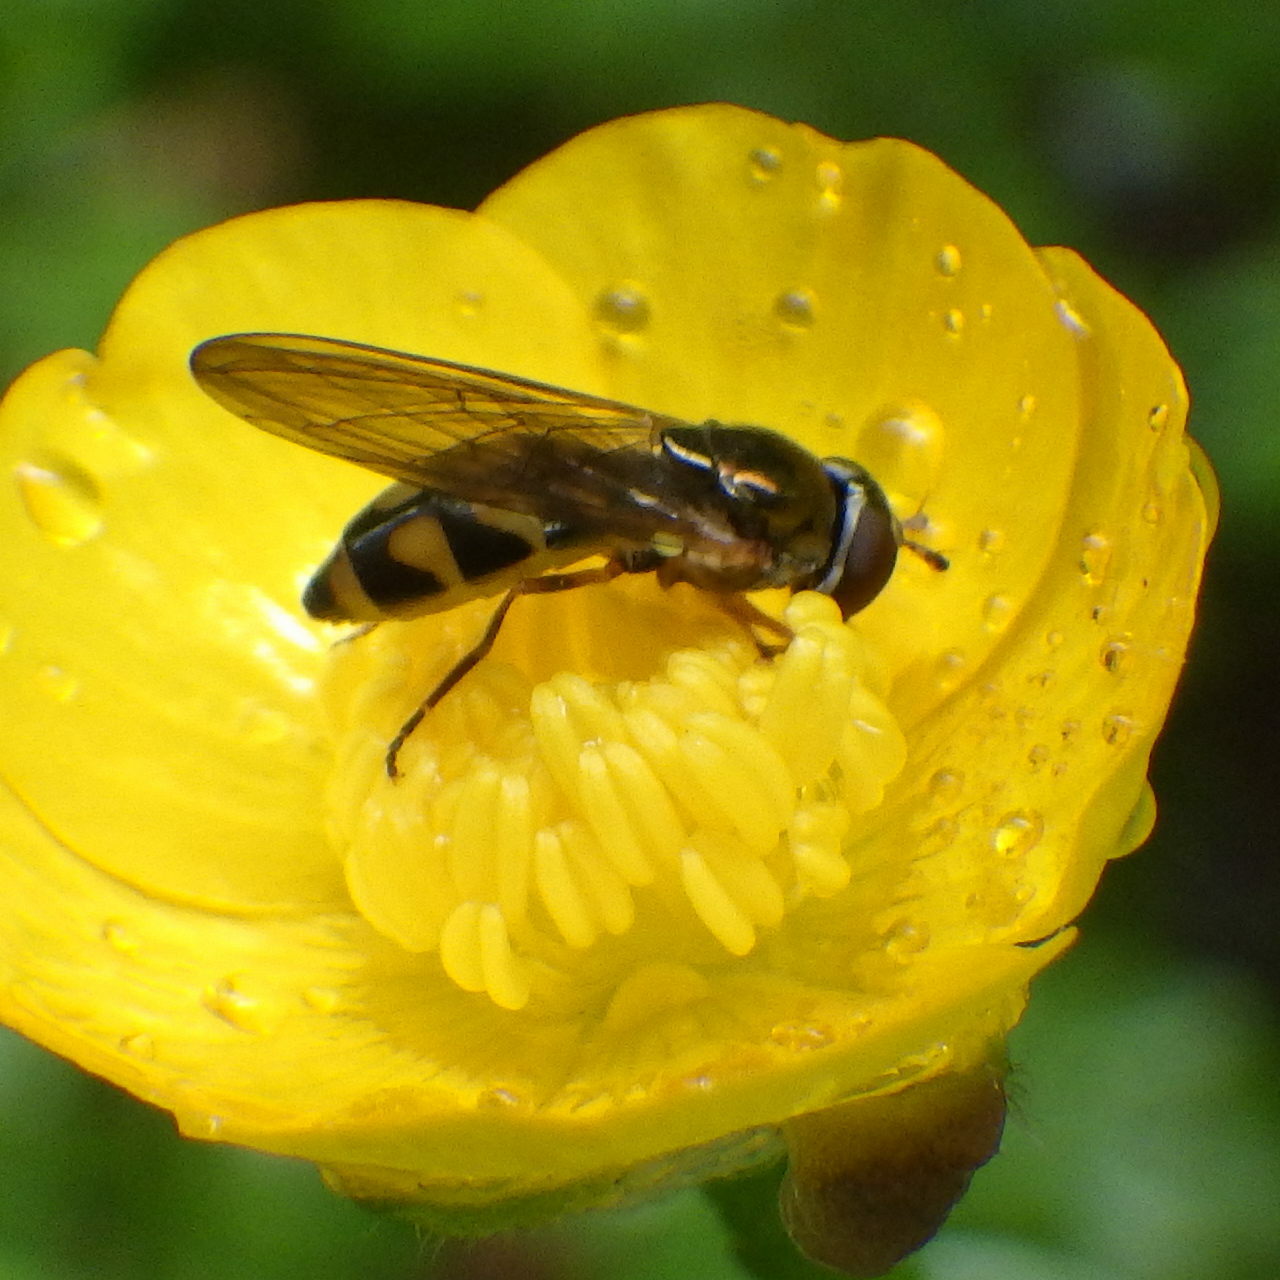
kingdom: Animalia
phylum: Arthropoda
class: Insecta
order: Diptera
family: Syrphidae
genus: Melanostoma
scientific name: Melanostoma mellina
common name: Hover fly
